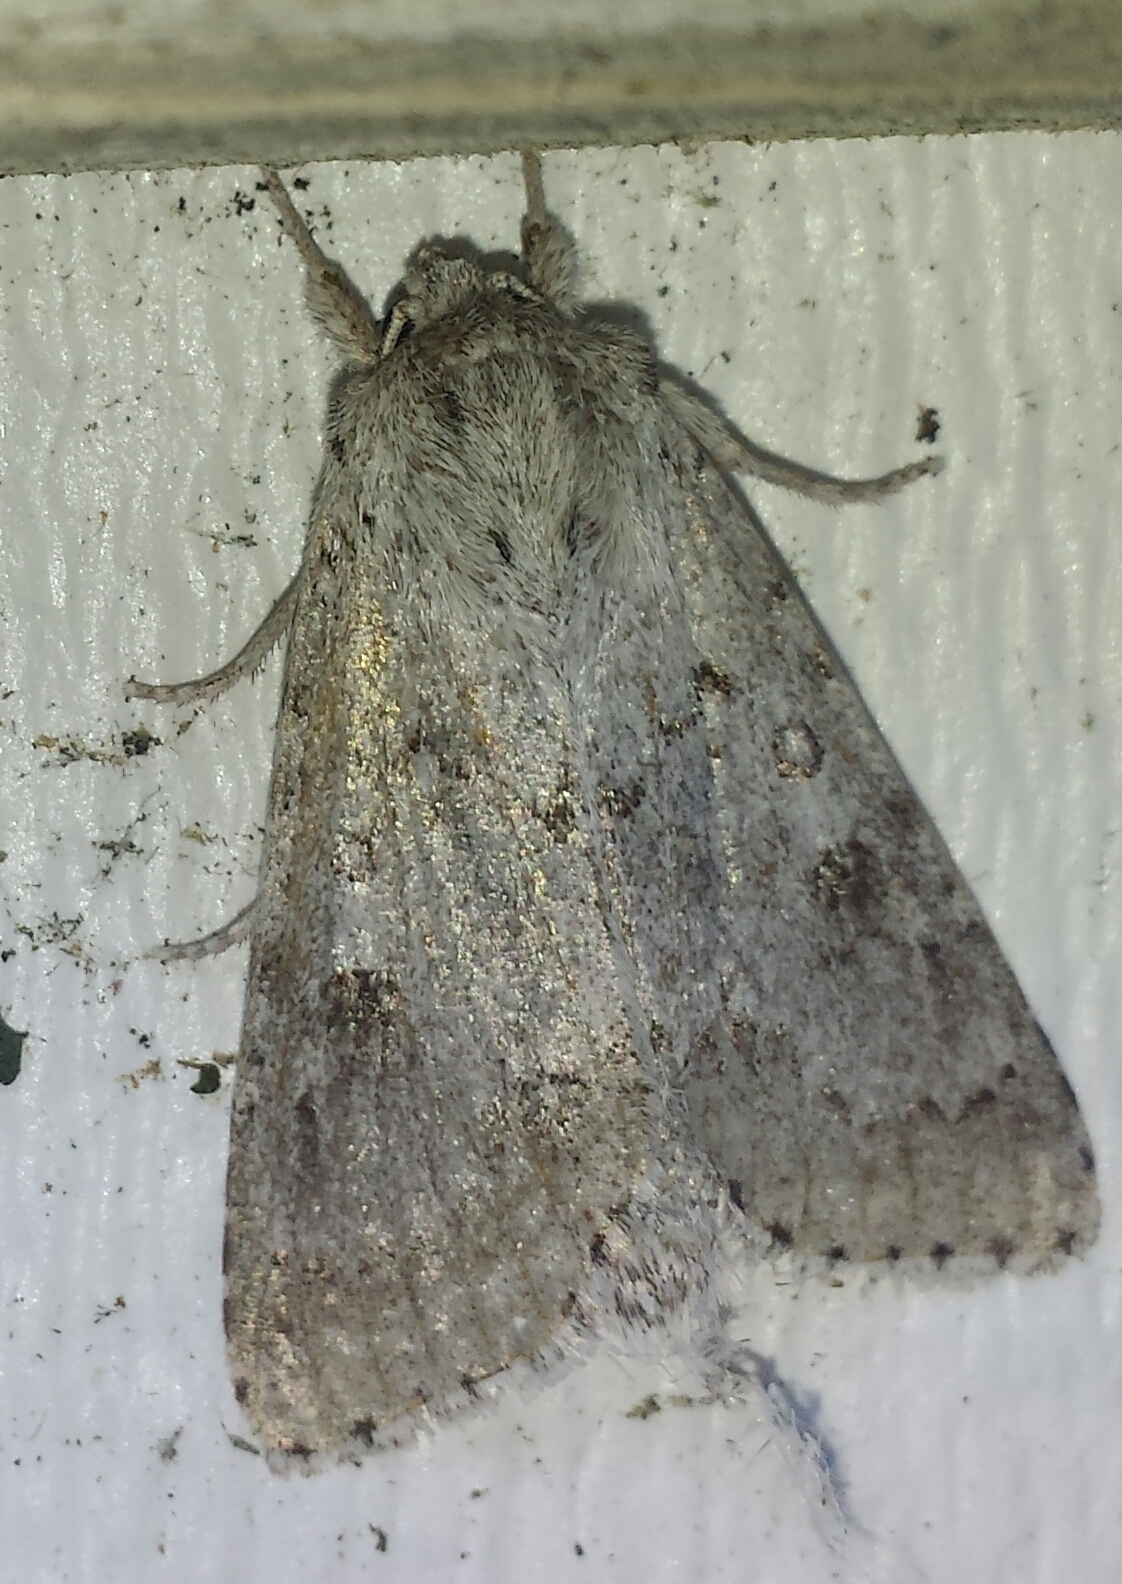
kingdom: Animalia
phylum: Arthropoda
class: Insecta
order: Lepidoptera
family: Noctuidae
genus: Acronicta
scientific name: Acronicta insita
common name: Large gray dagger
